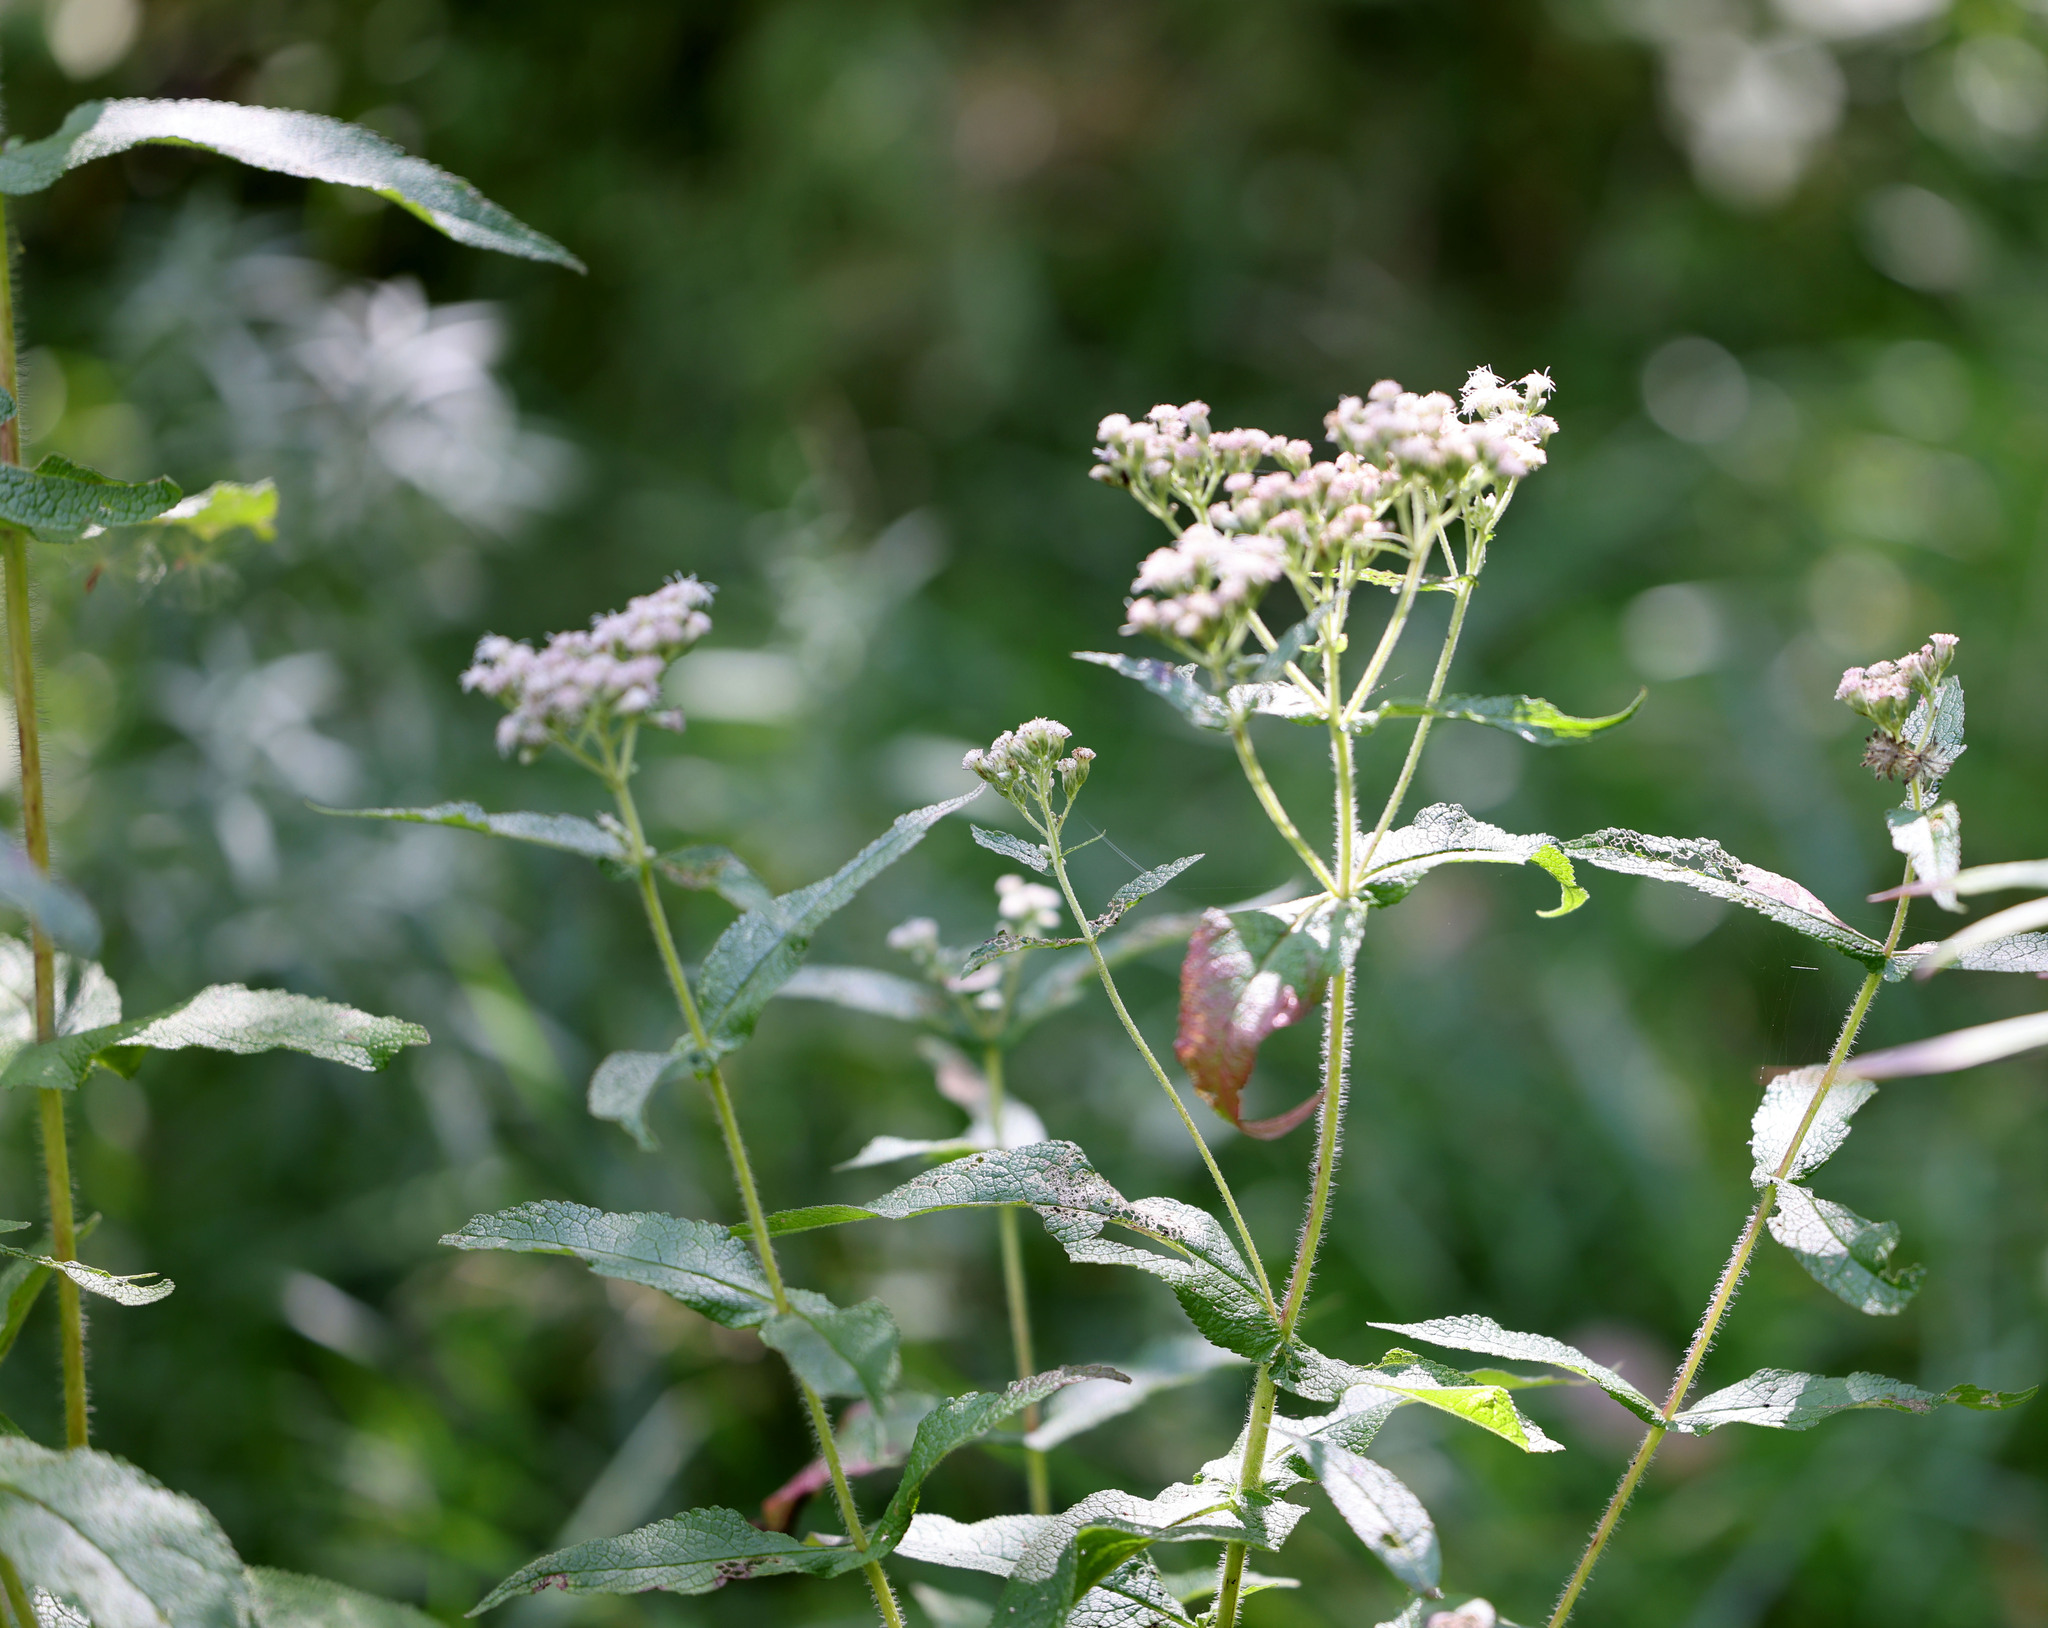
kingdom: Plantae
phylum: Tracheophyta
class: Magnoliopsida
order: Asterales
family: Asteraceae
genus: Eupatorium
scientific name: Eupatorium perfoliatum
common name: Boneset
